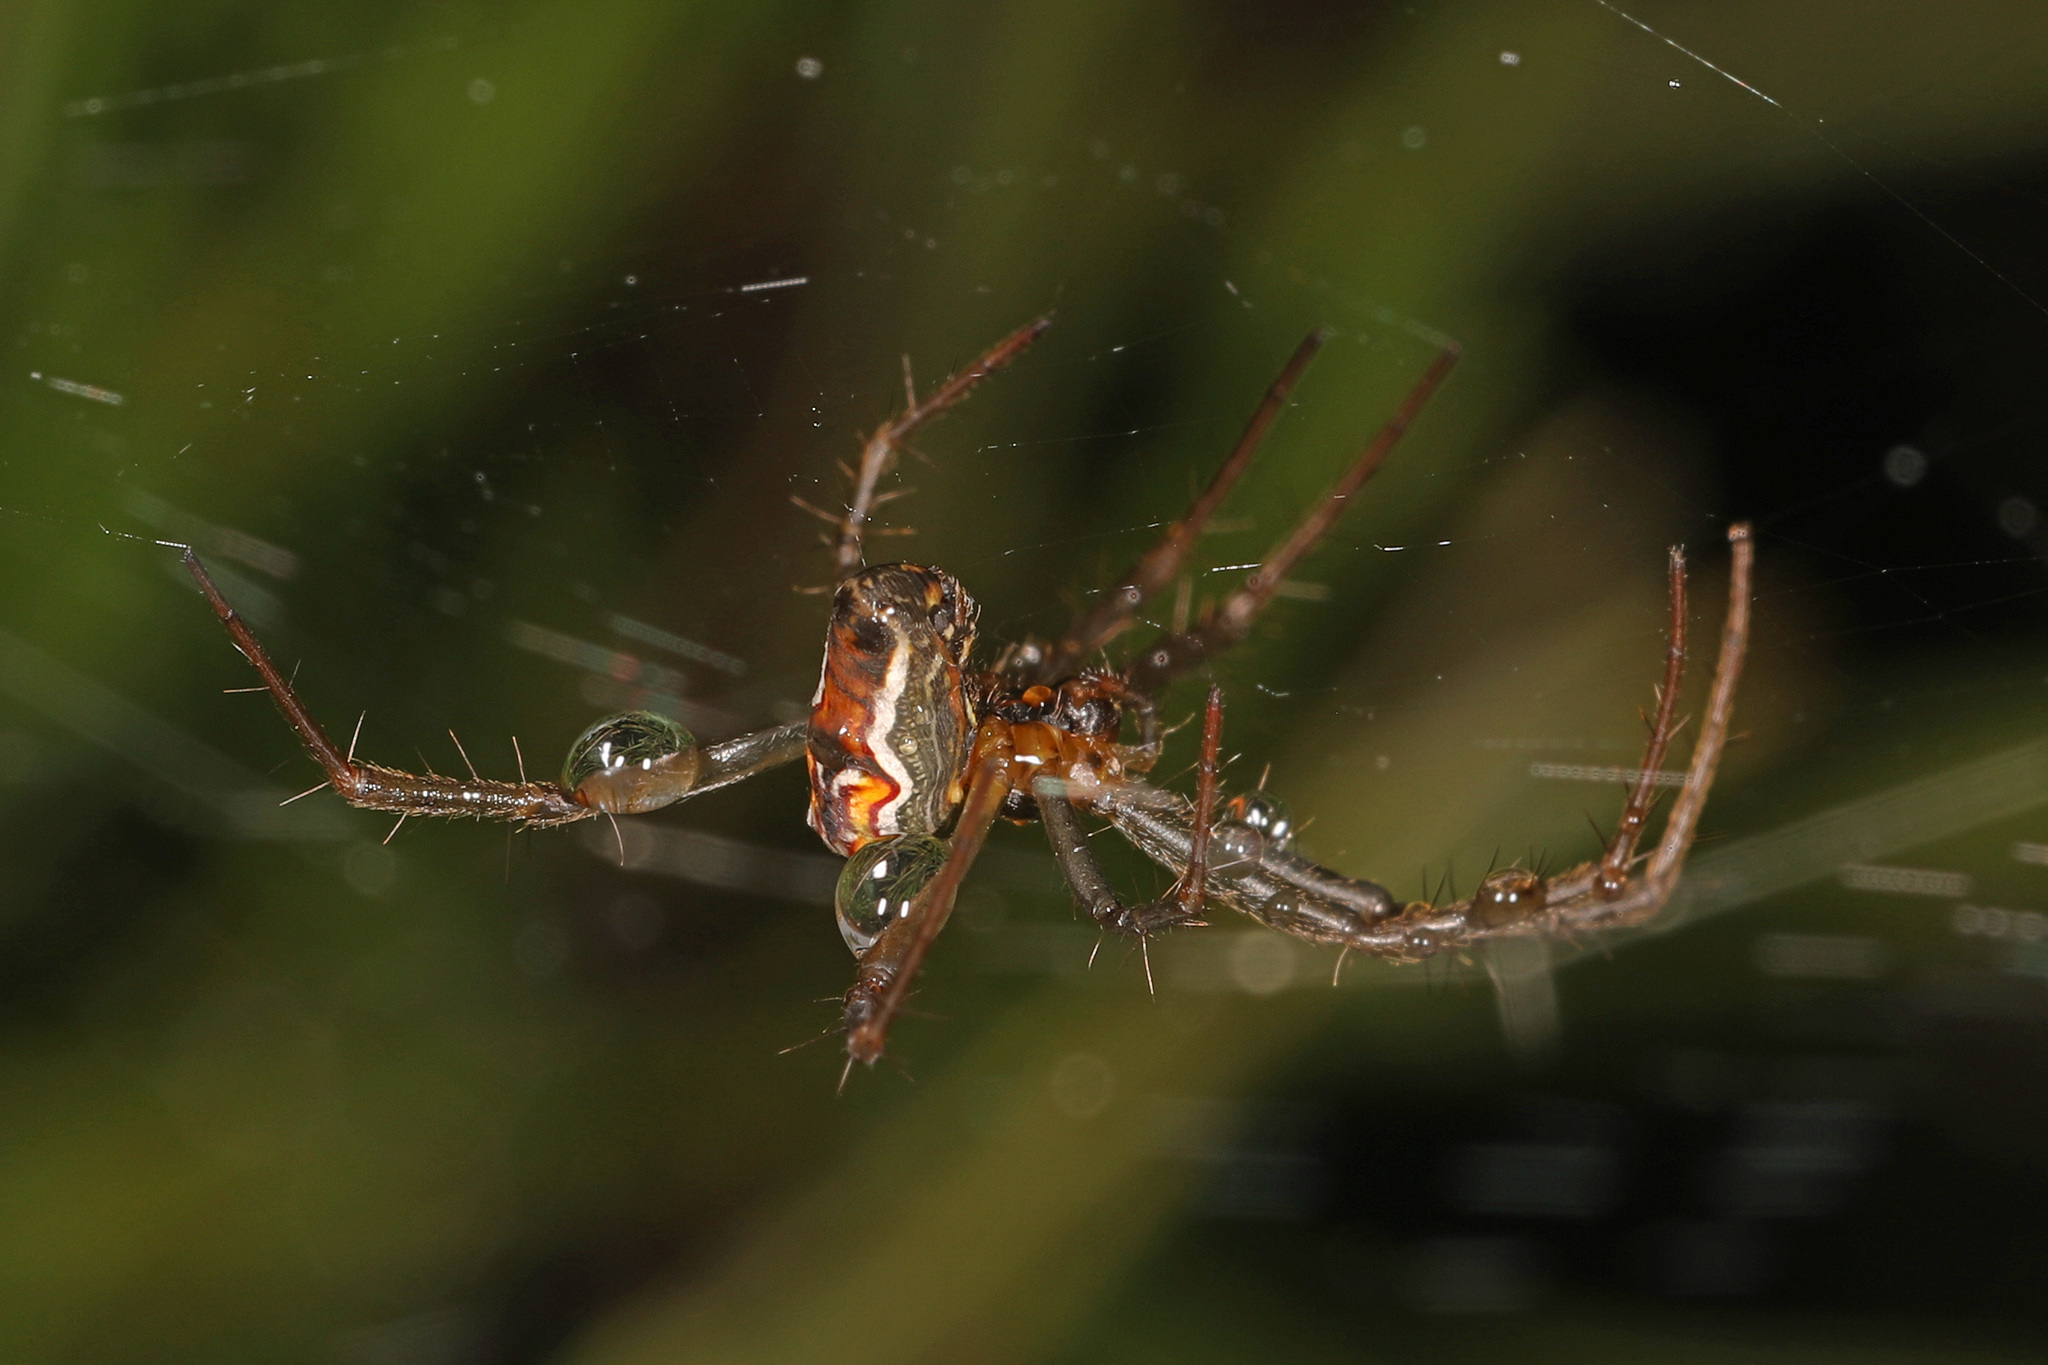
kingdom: Animalia
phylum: Arthropoda
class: Arachnida
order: Araneae
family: Araneidae
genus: Mecynogea
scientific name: Mecynogea lemniscata
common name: Orb weavers
